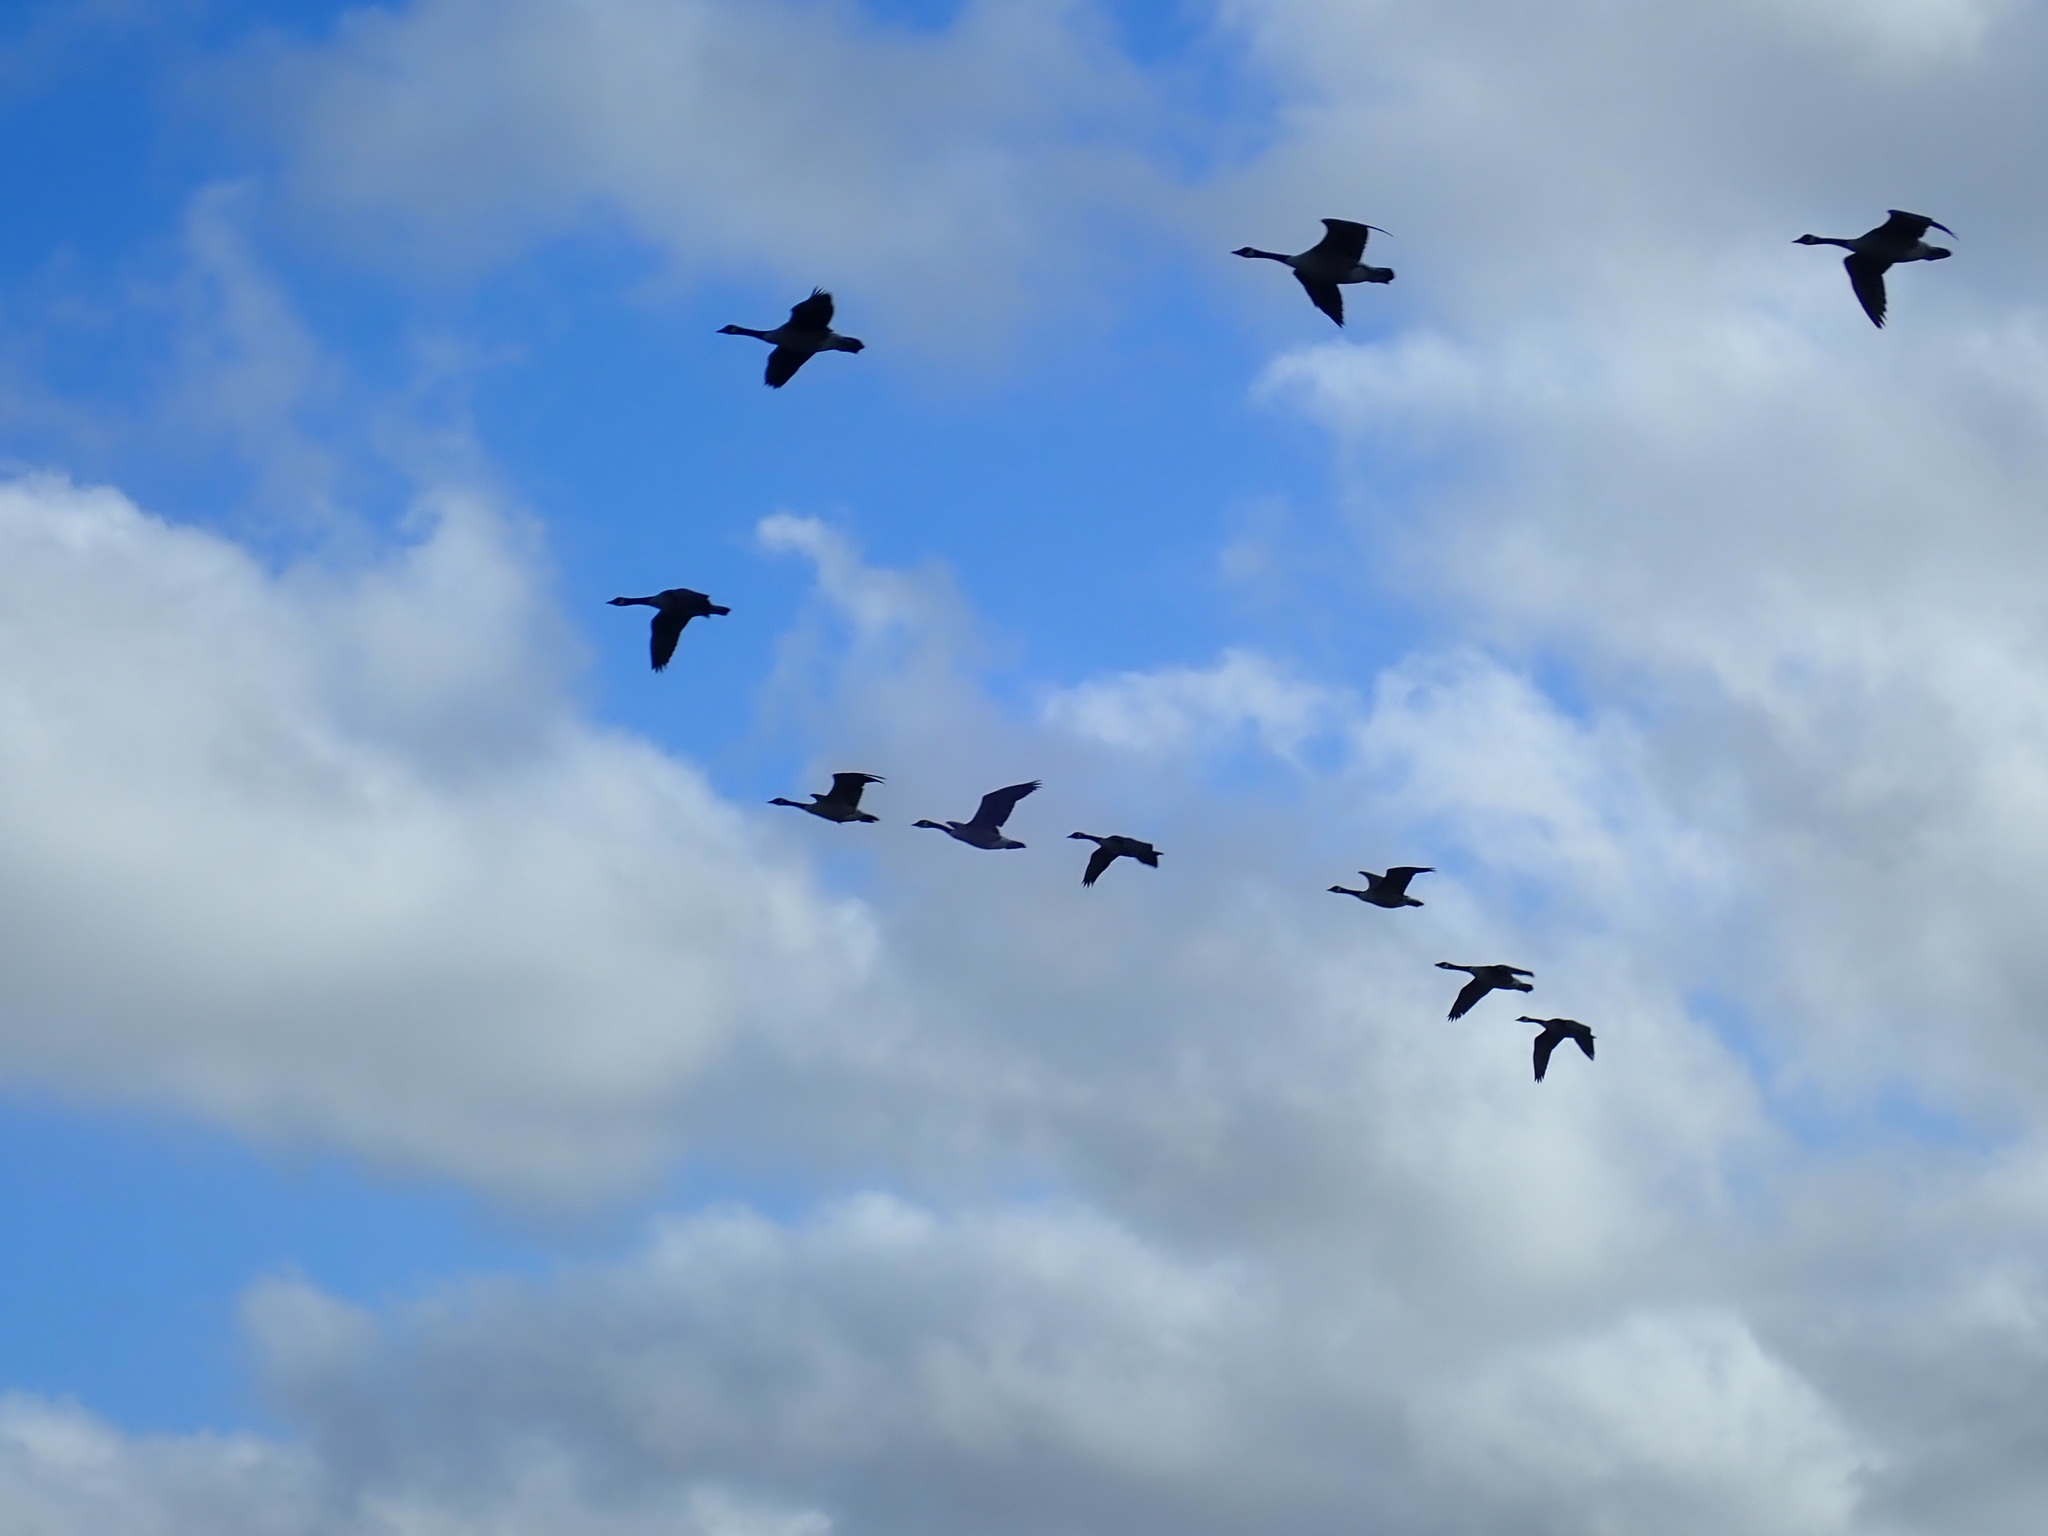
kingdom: Animalia
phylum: Chordata
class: Aves
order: Anseriformes
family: Anatidae
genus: Branta
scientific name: Branta canadensis
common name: Canada goose
